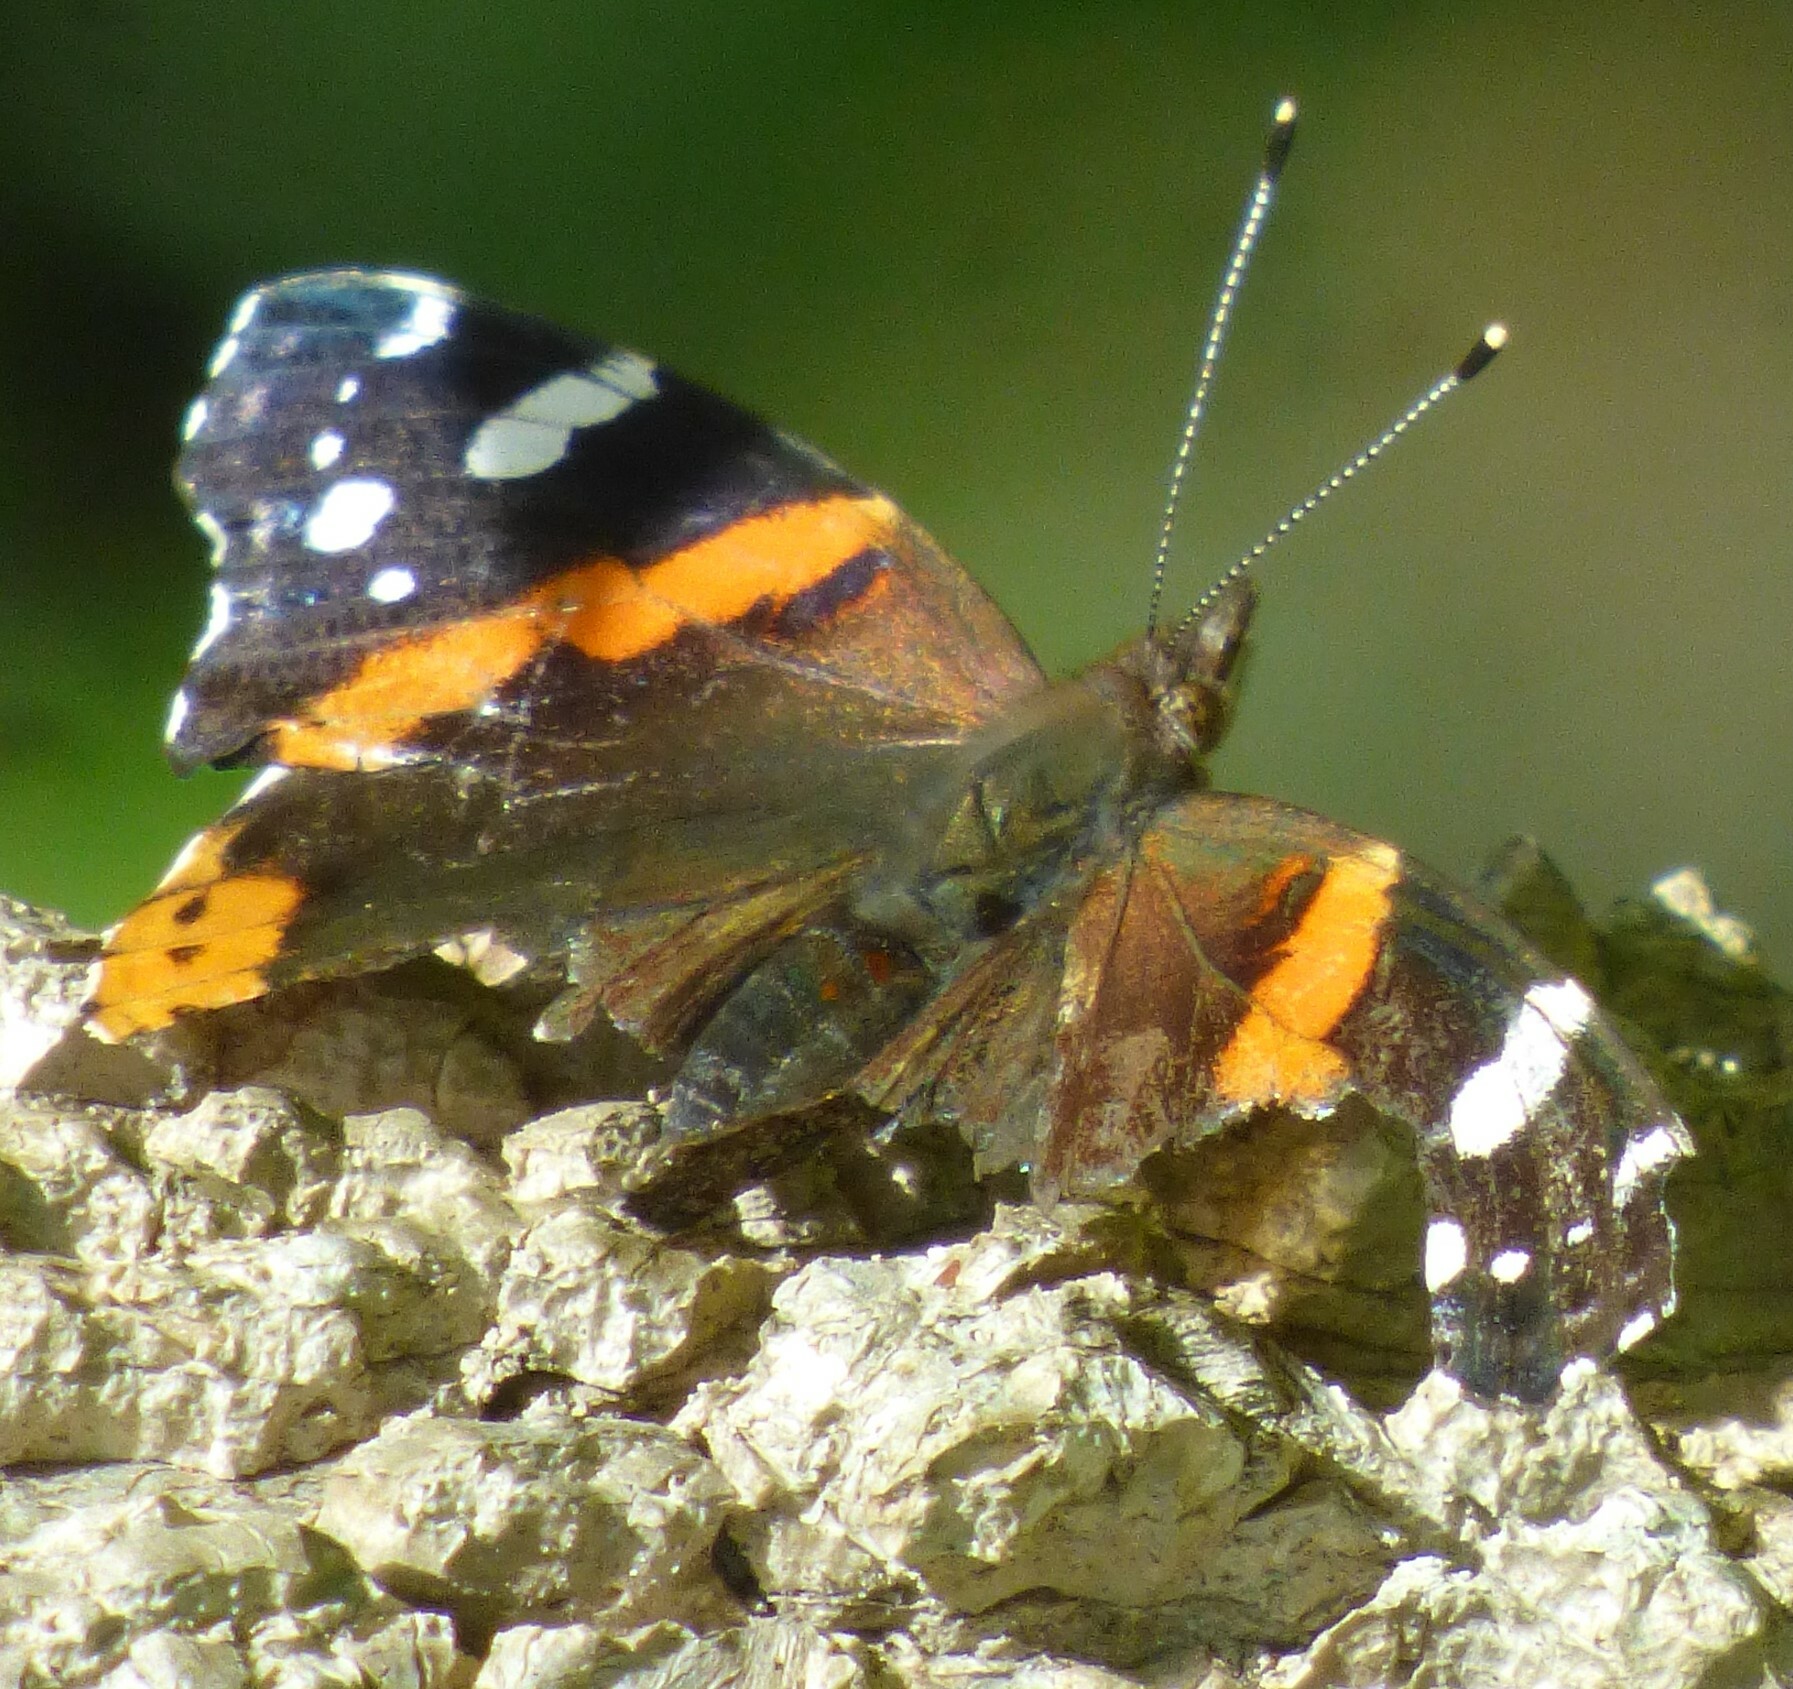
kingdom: Animalia
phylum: Arthropoda
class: Insecta
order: Lepidoptera
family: Nymphalidae
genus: Vanessa
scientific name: Vanessa atalanta
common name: Red admiral
